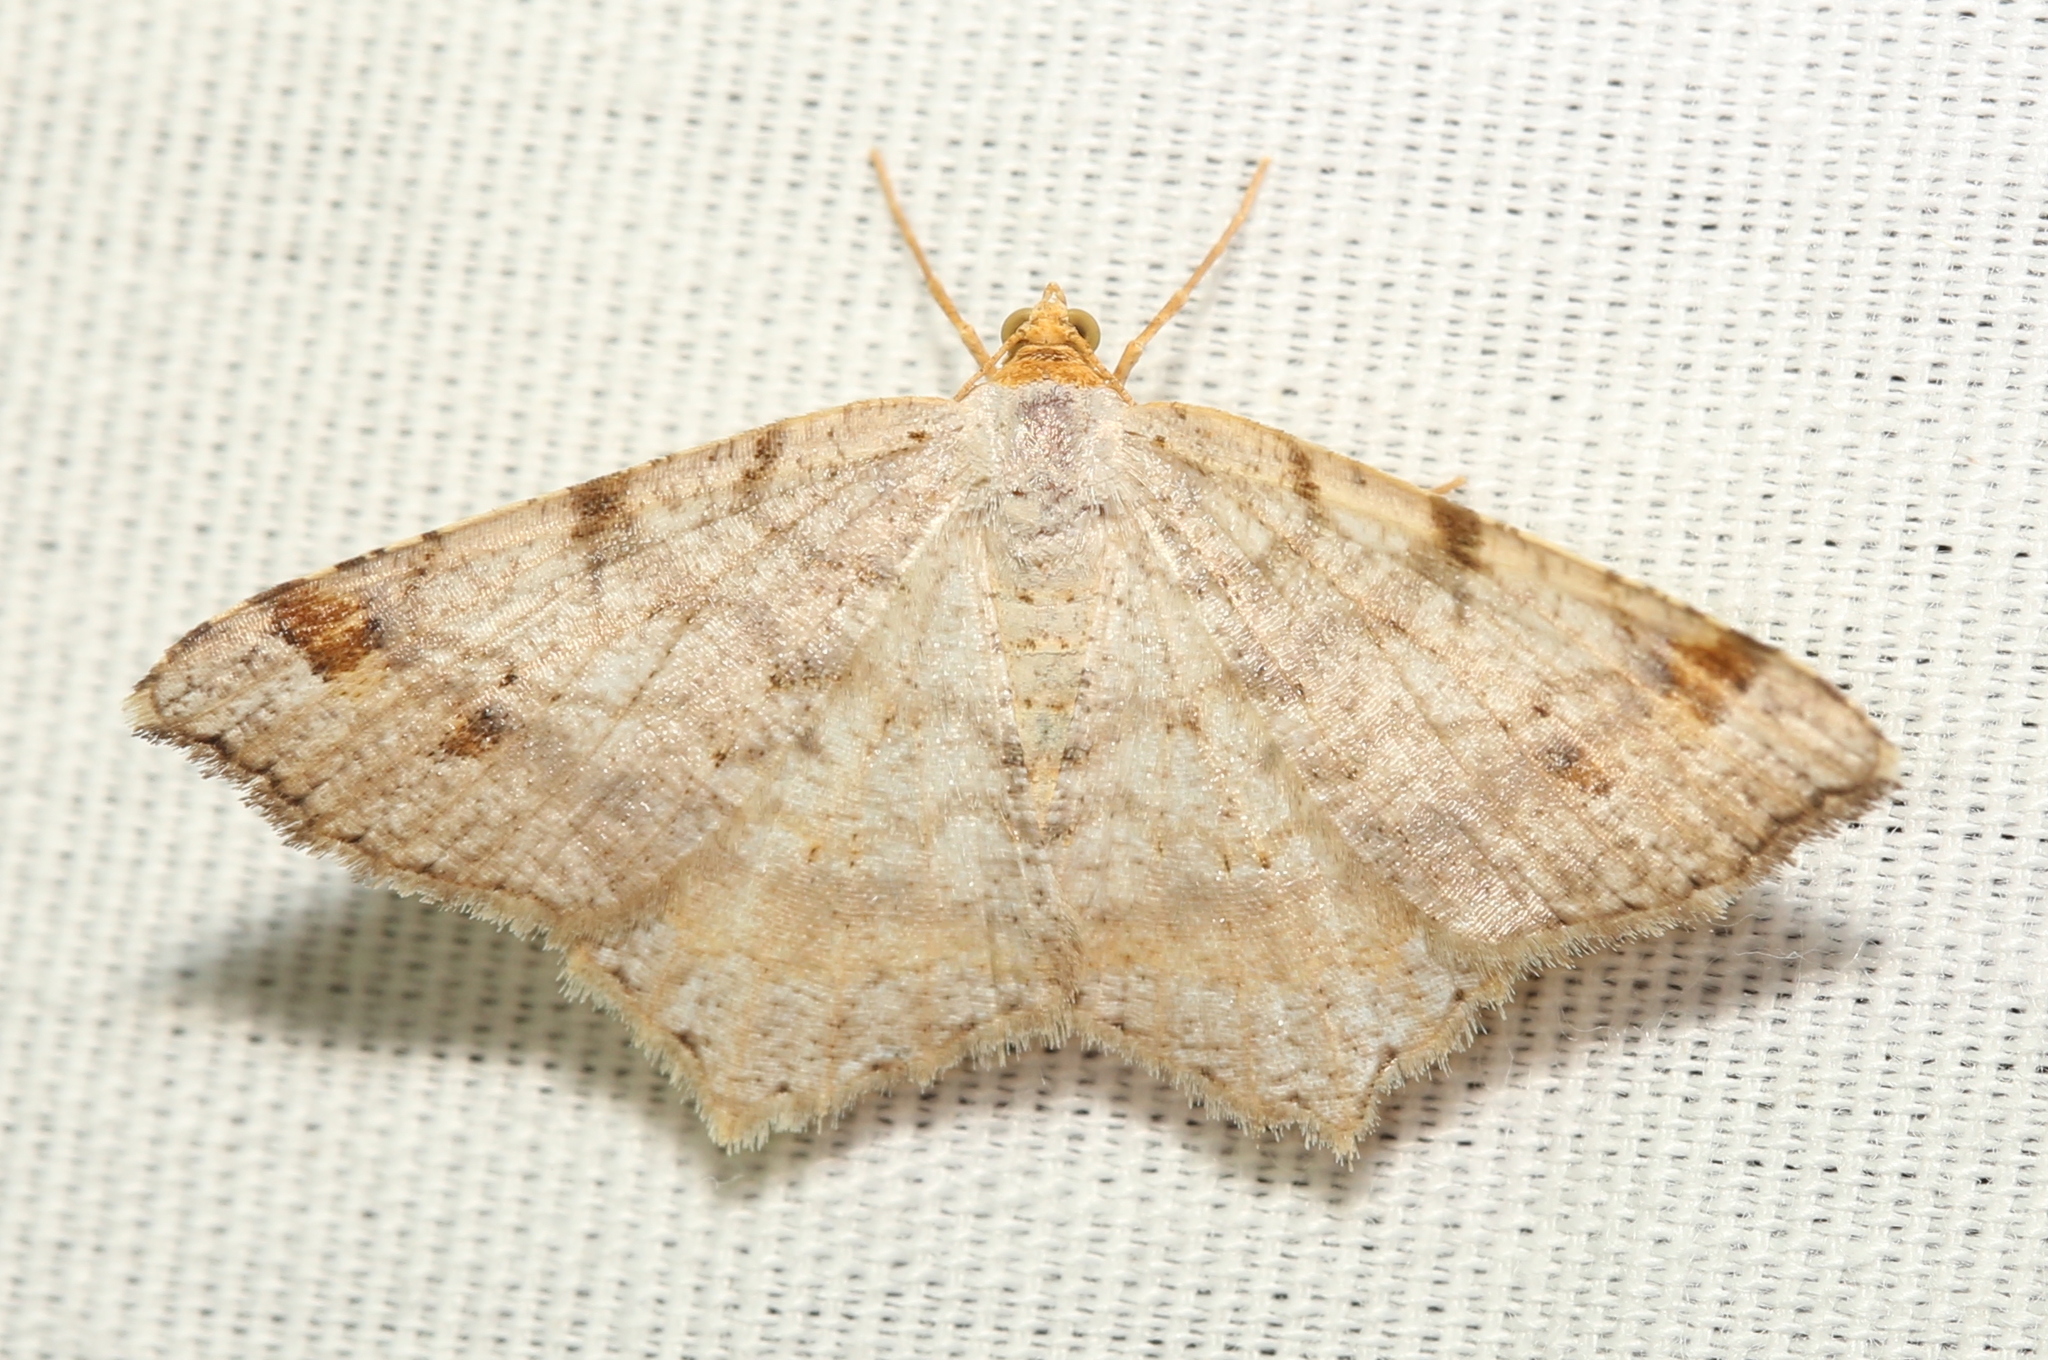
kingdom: Animalia
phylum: Arthropoda
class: Insecta
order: Lepidoptera
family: Geometridae
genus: Macaria
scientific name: Macaria bisignata
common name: Red-headed inchworm
